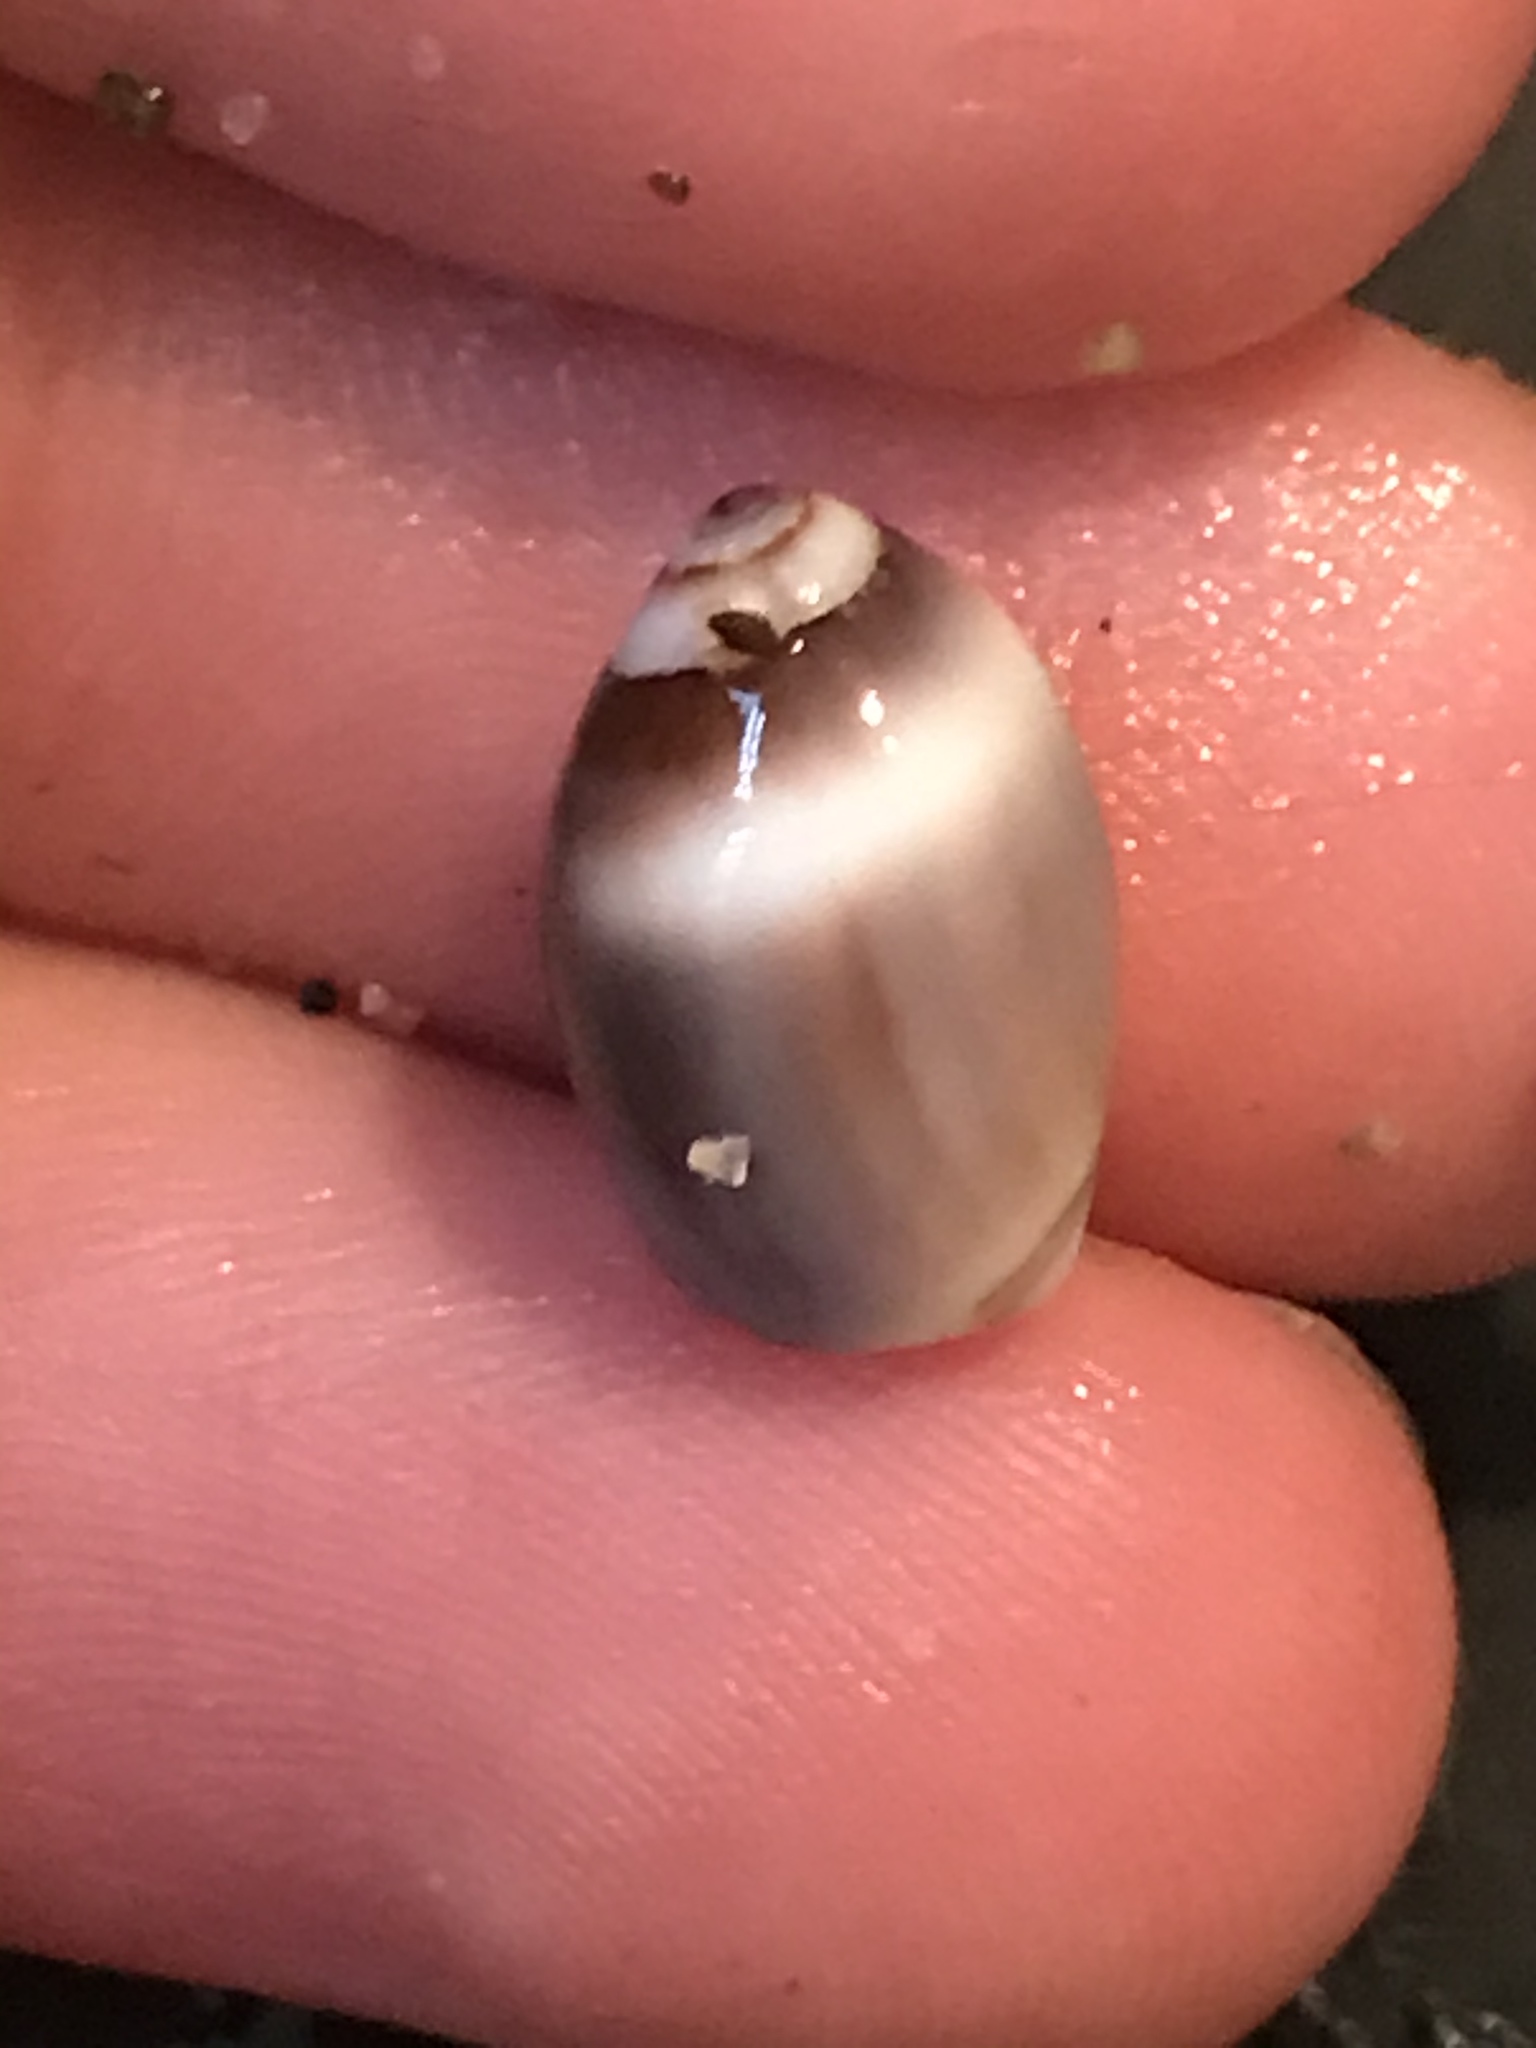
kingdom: Animalia
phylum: Mollusca
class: Gastropoda
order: Neogastropoda
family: Olividae
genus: Callianax
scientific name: Callianax biplicata
